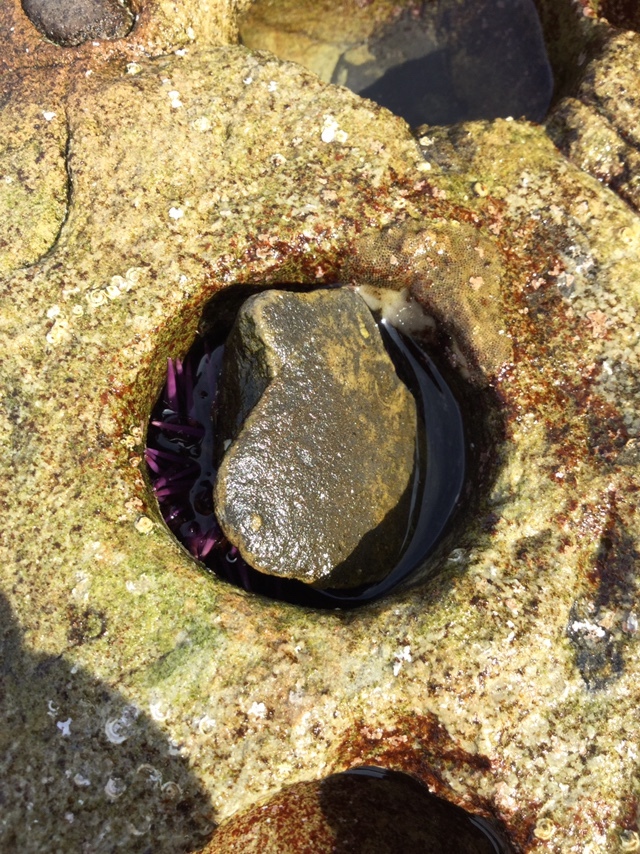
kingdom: Animalia
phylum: Echinodermata
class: Echinoidea
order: Camarodonta
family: Strongylocentrotidae
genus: Strongylocentrotus
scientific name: Strongylocentrotus purpuratus
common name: Purple sea urchin
